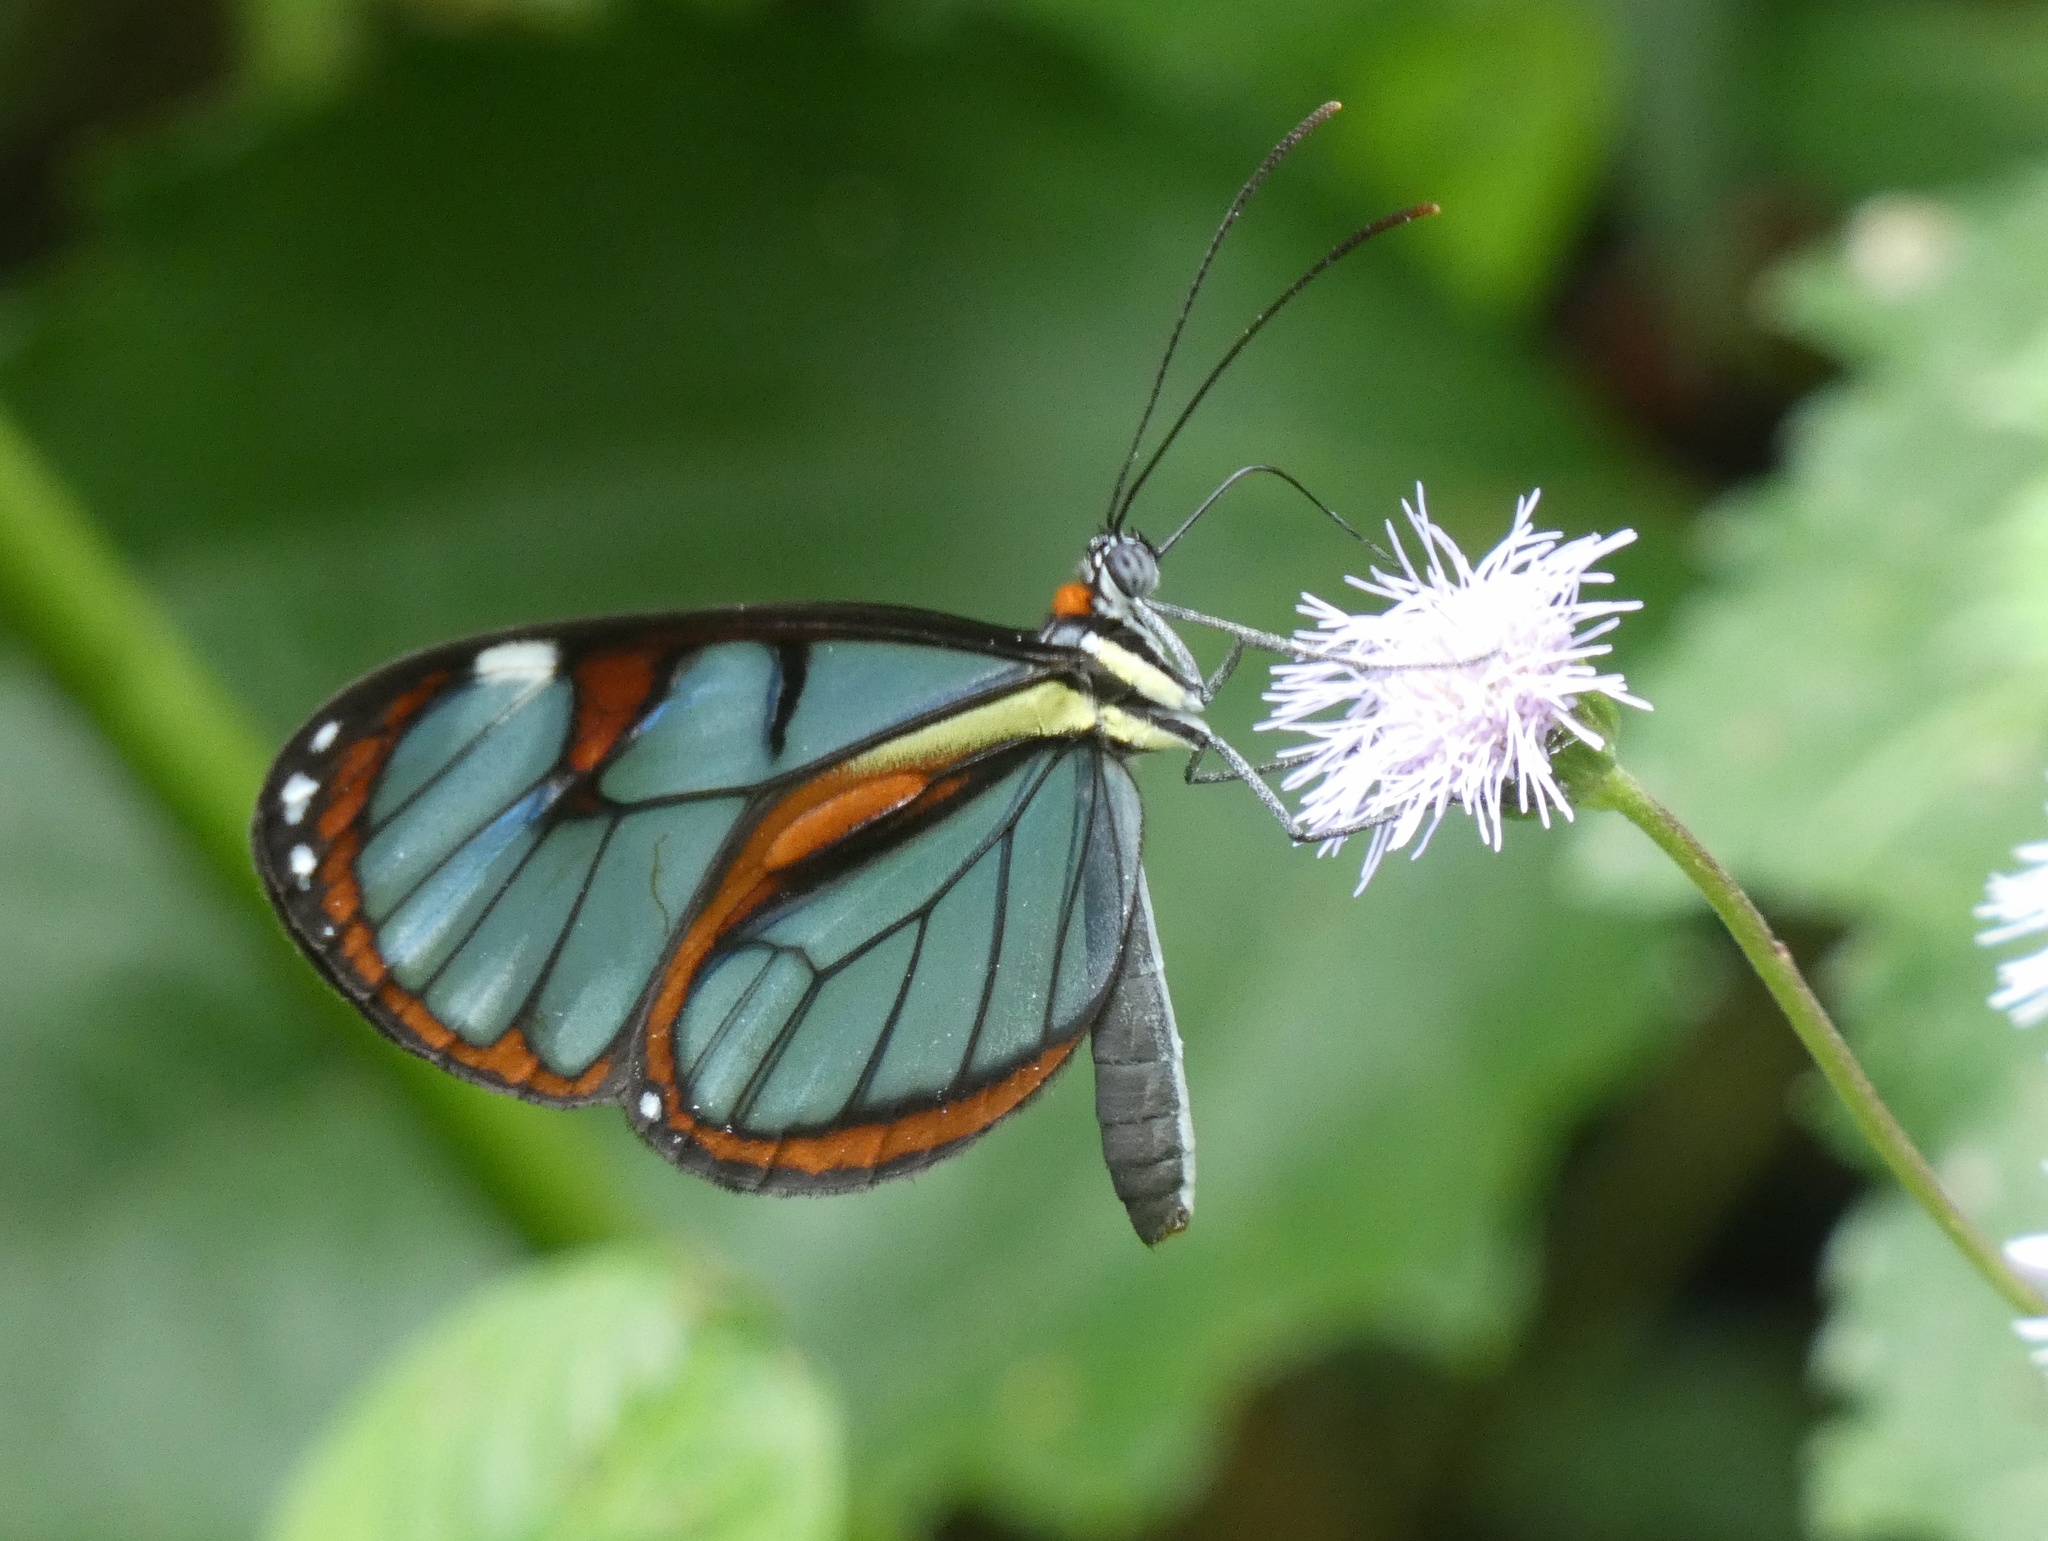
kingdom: Animalia
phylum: Arthropoda
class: Insecta
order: Lepidoptera
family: Nymphalidae
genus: Ithomia
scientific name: Ithomia diasia
